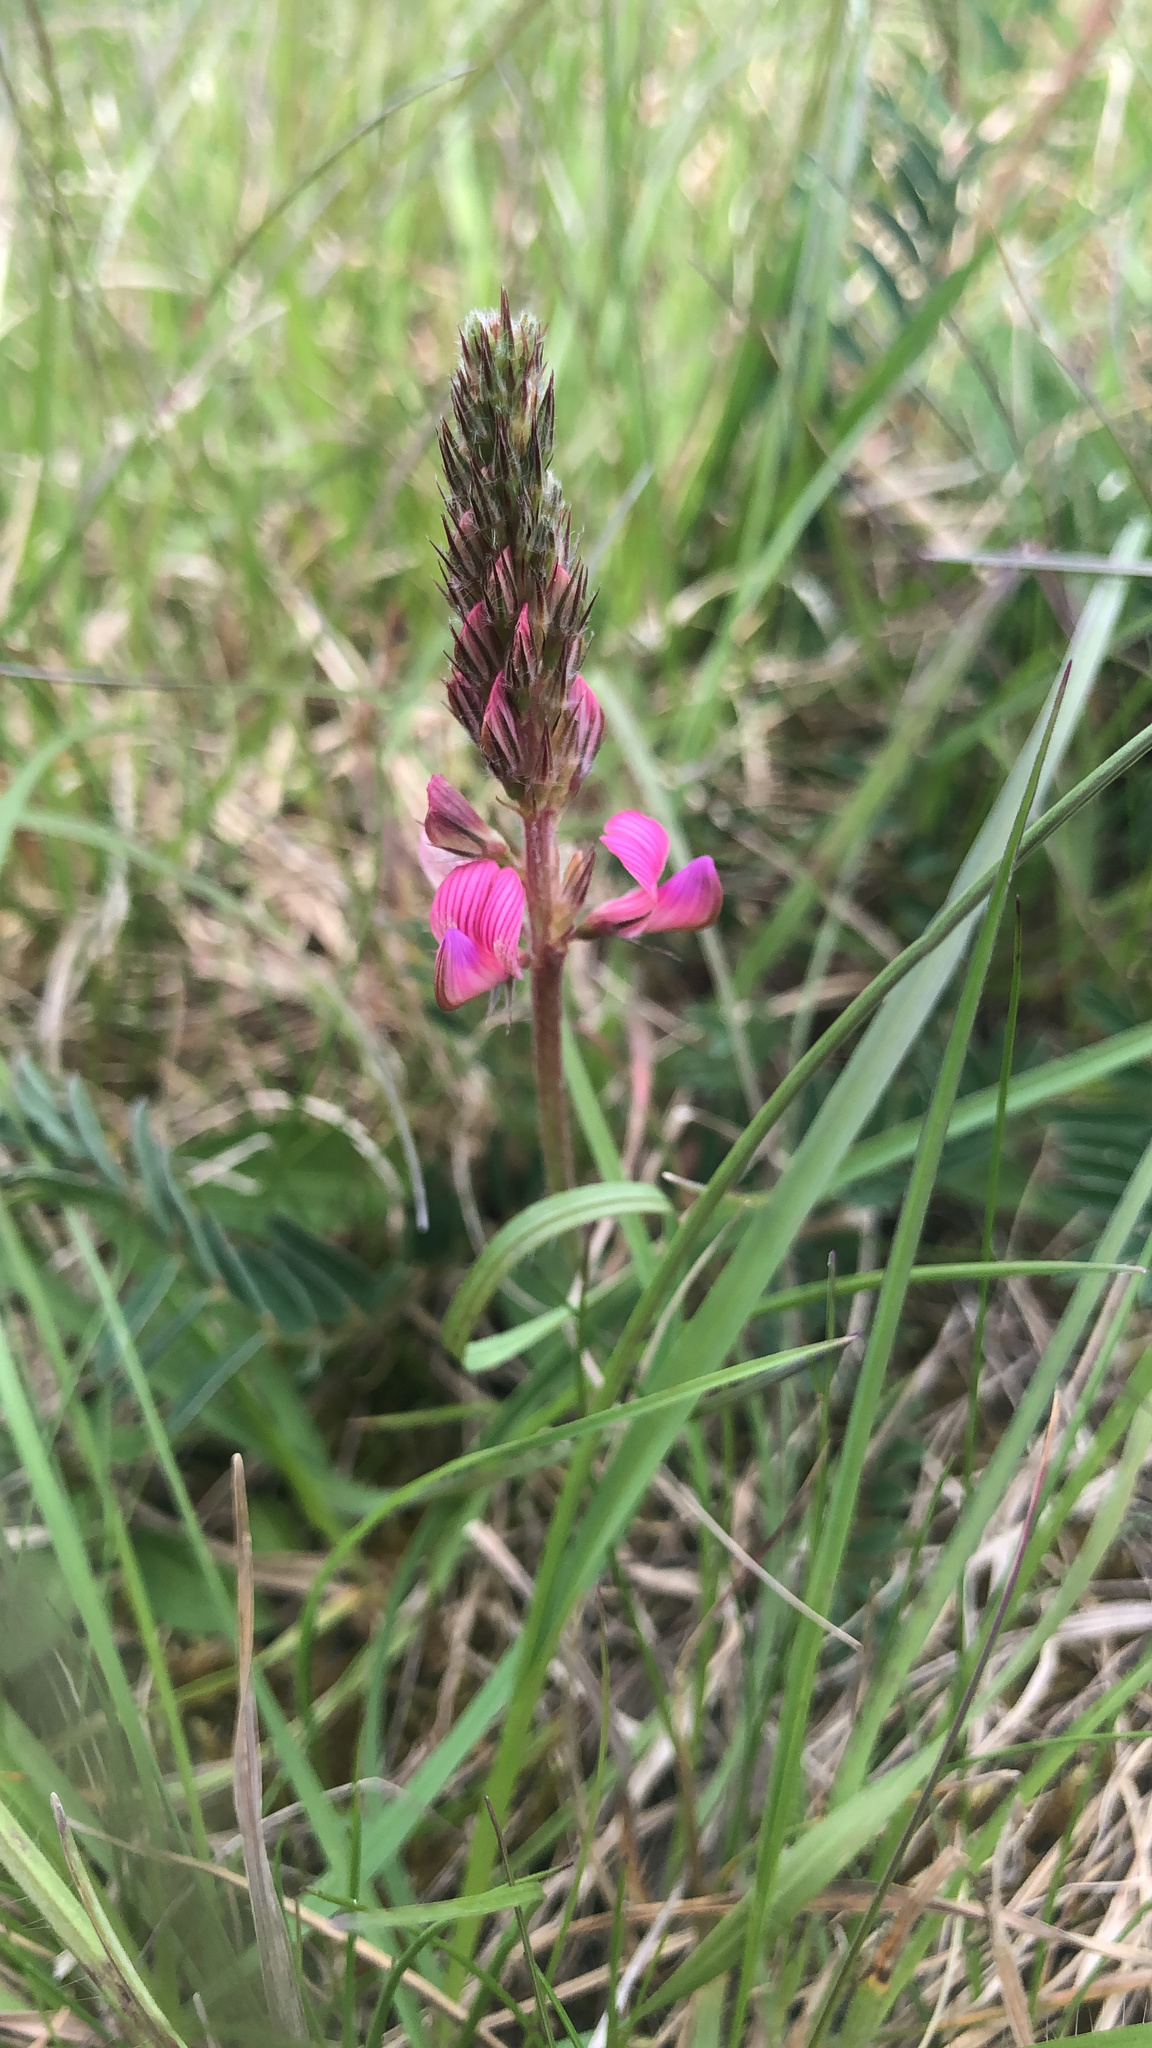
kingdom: Plantae
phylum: Tracheophyta
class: Magnoliopsida
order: Fabales
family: Fabaceae
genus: Onobrychis
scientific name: Onobrychis viciifolia
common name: Sainfoin
